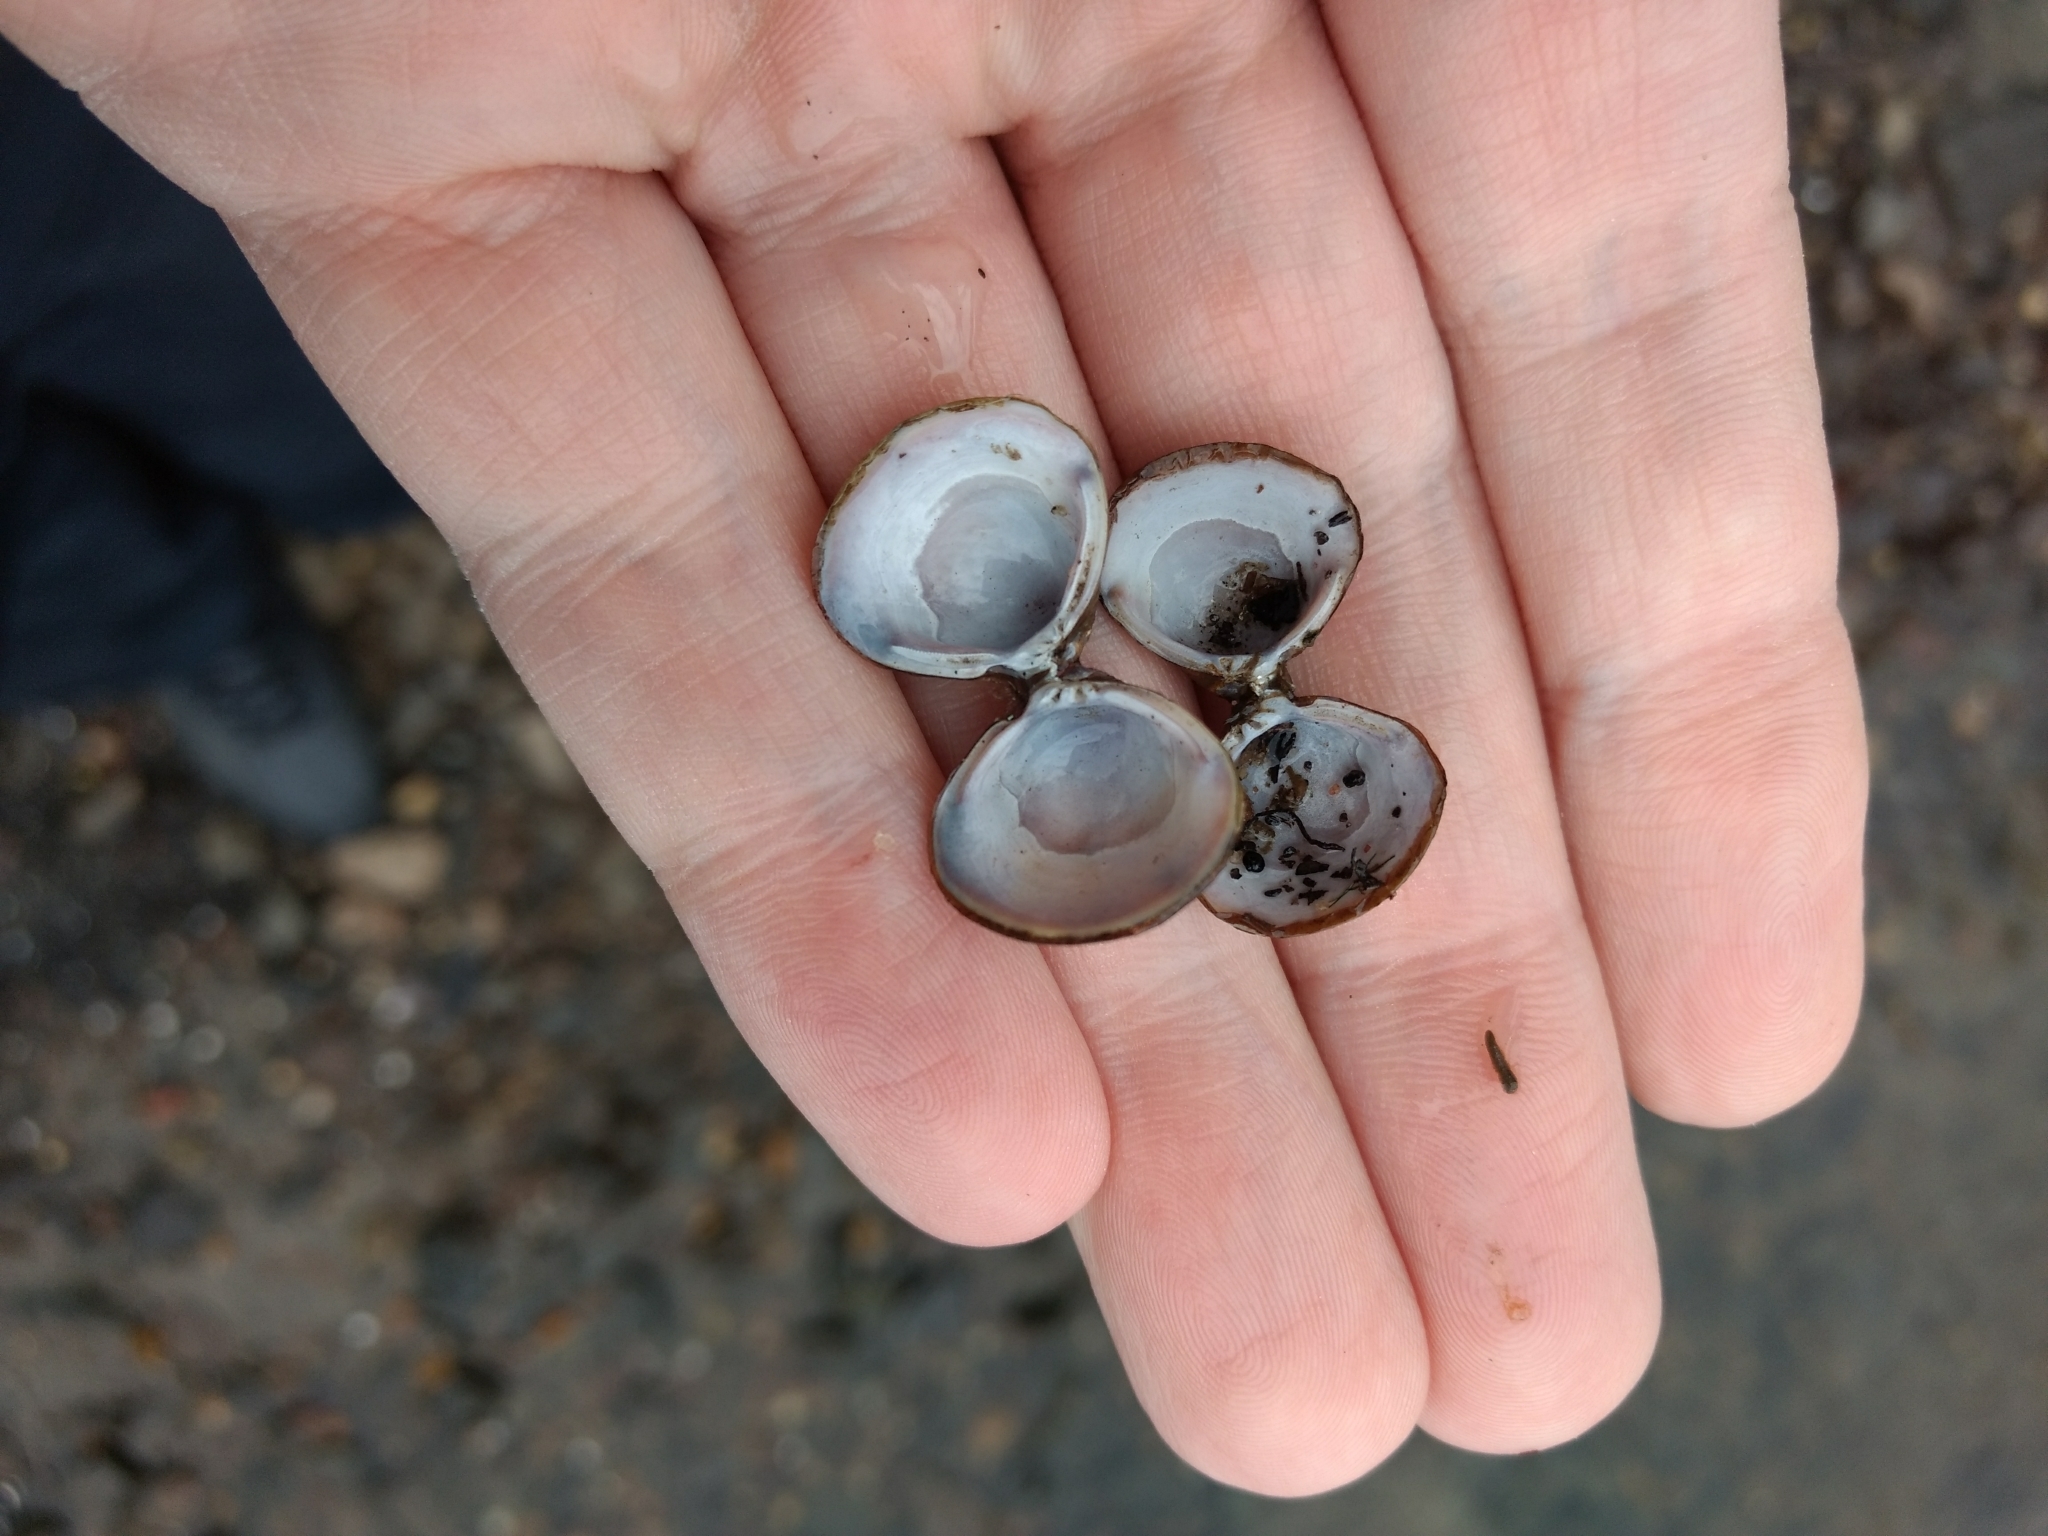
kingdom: Animalia
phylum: Mollusca
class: Bivalvia
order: Venerida
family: Cyrenidae
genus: Corbicula
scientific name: Corbicula fluminea
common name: Asian clam
